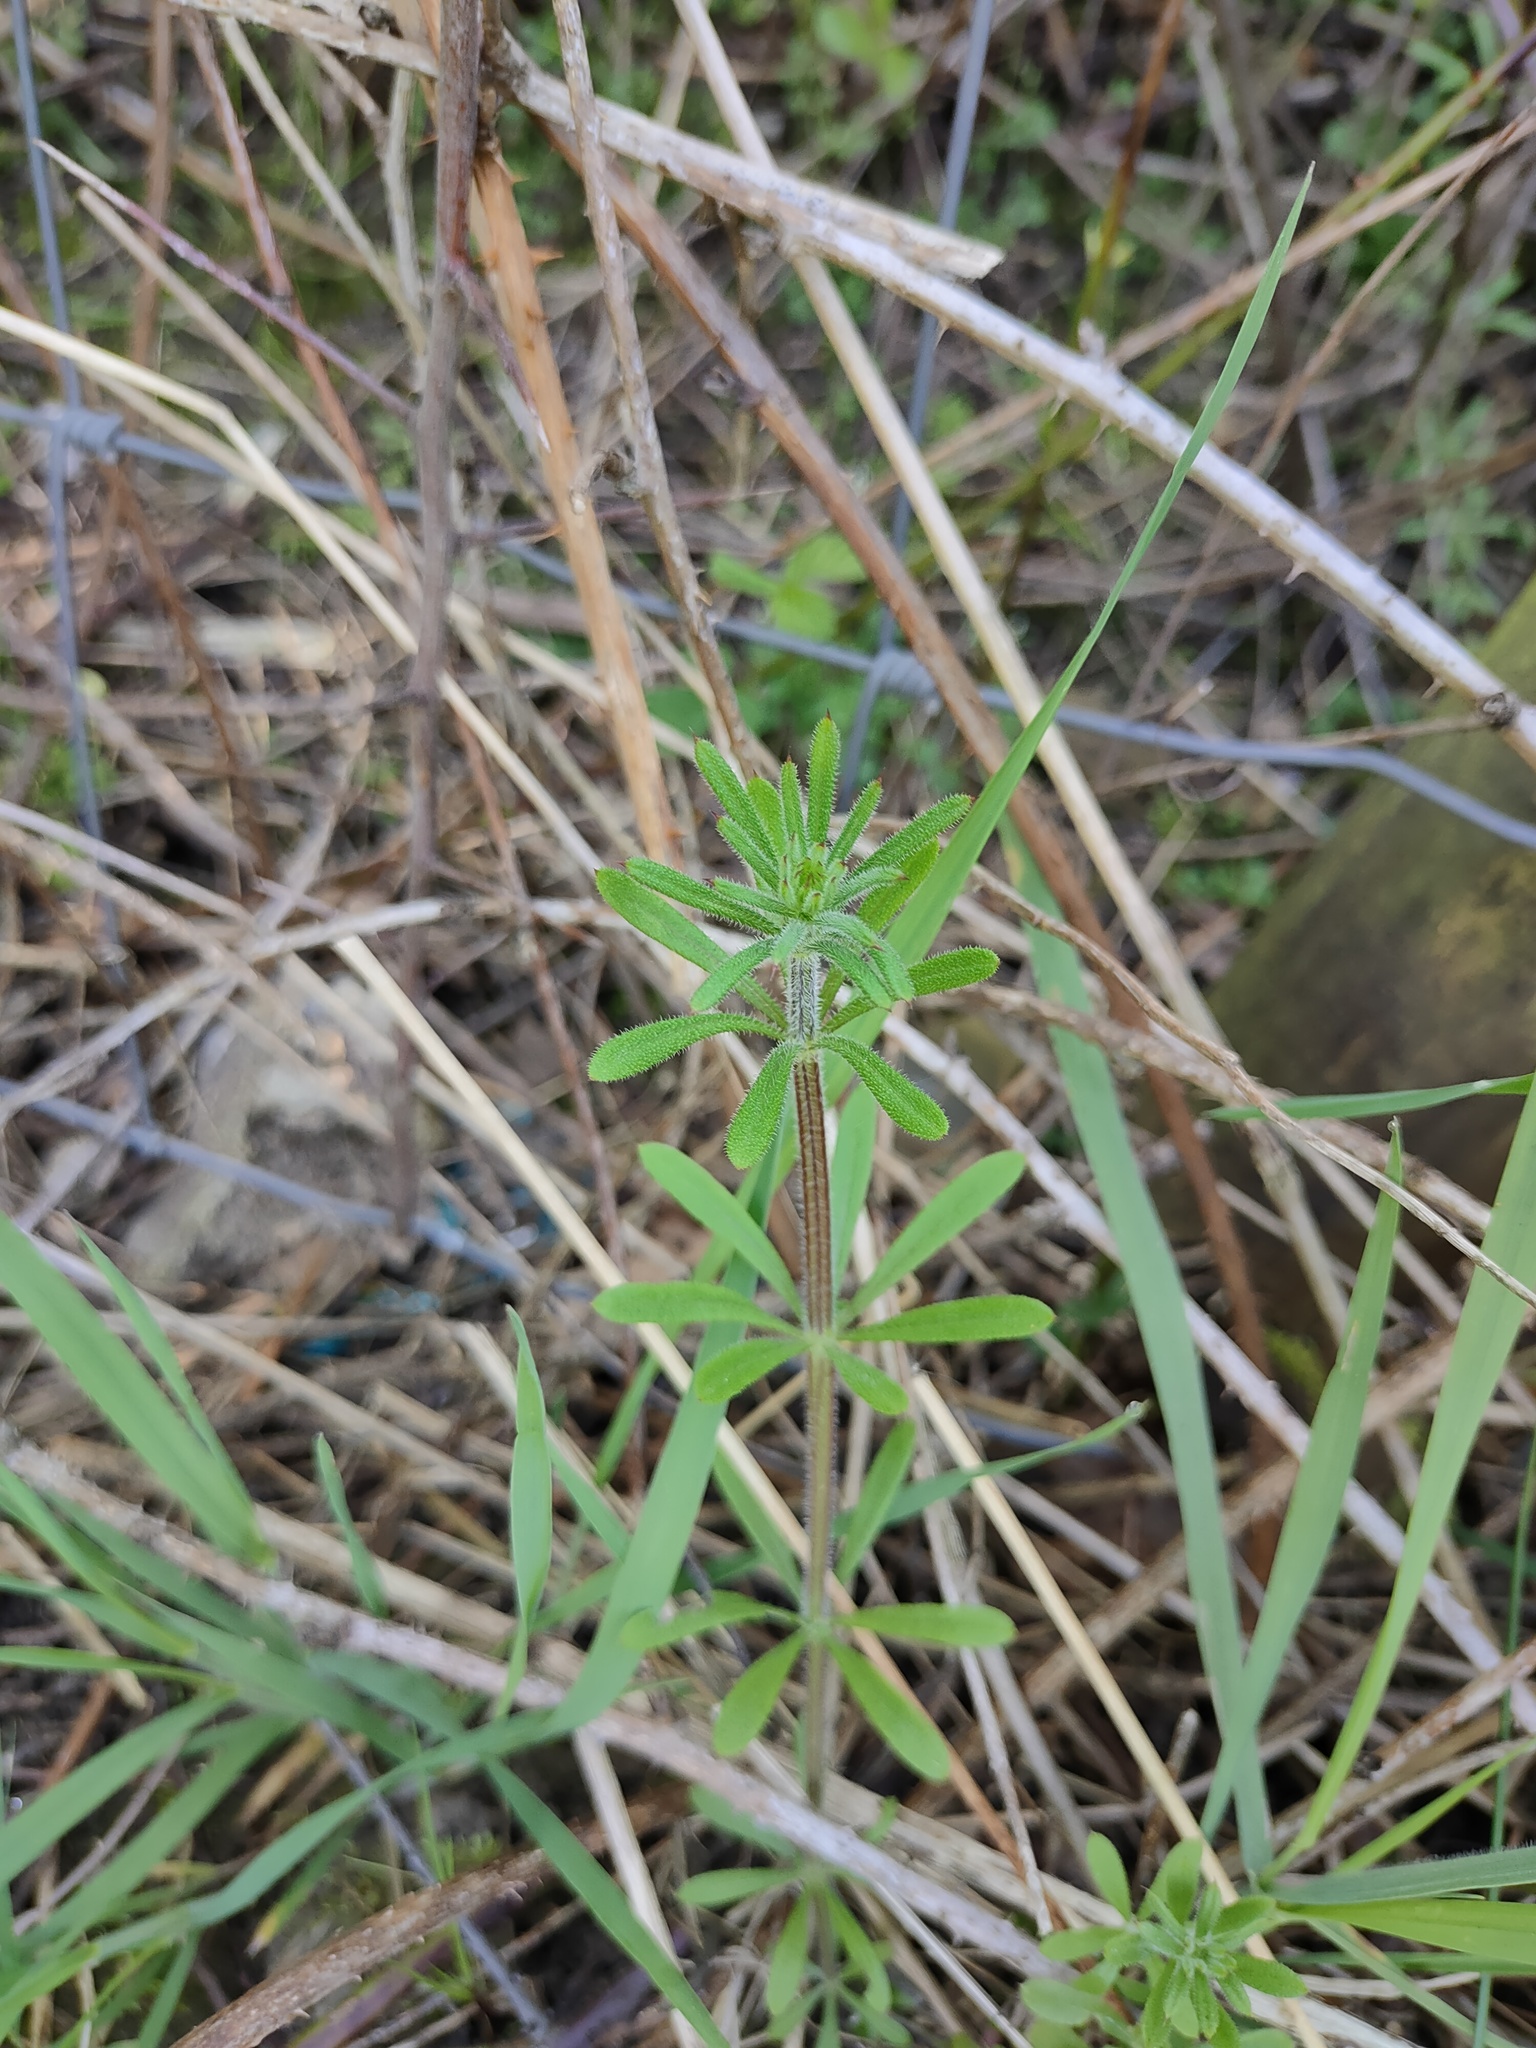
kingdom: Plantae
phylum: Tracheophyta
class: Magnoliopsida
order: Gentianales
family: Rubiaceae
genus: Galium
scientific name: Galium aparine
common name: Cleavers
